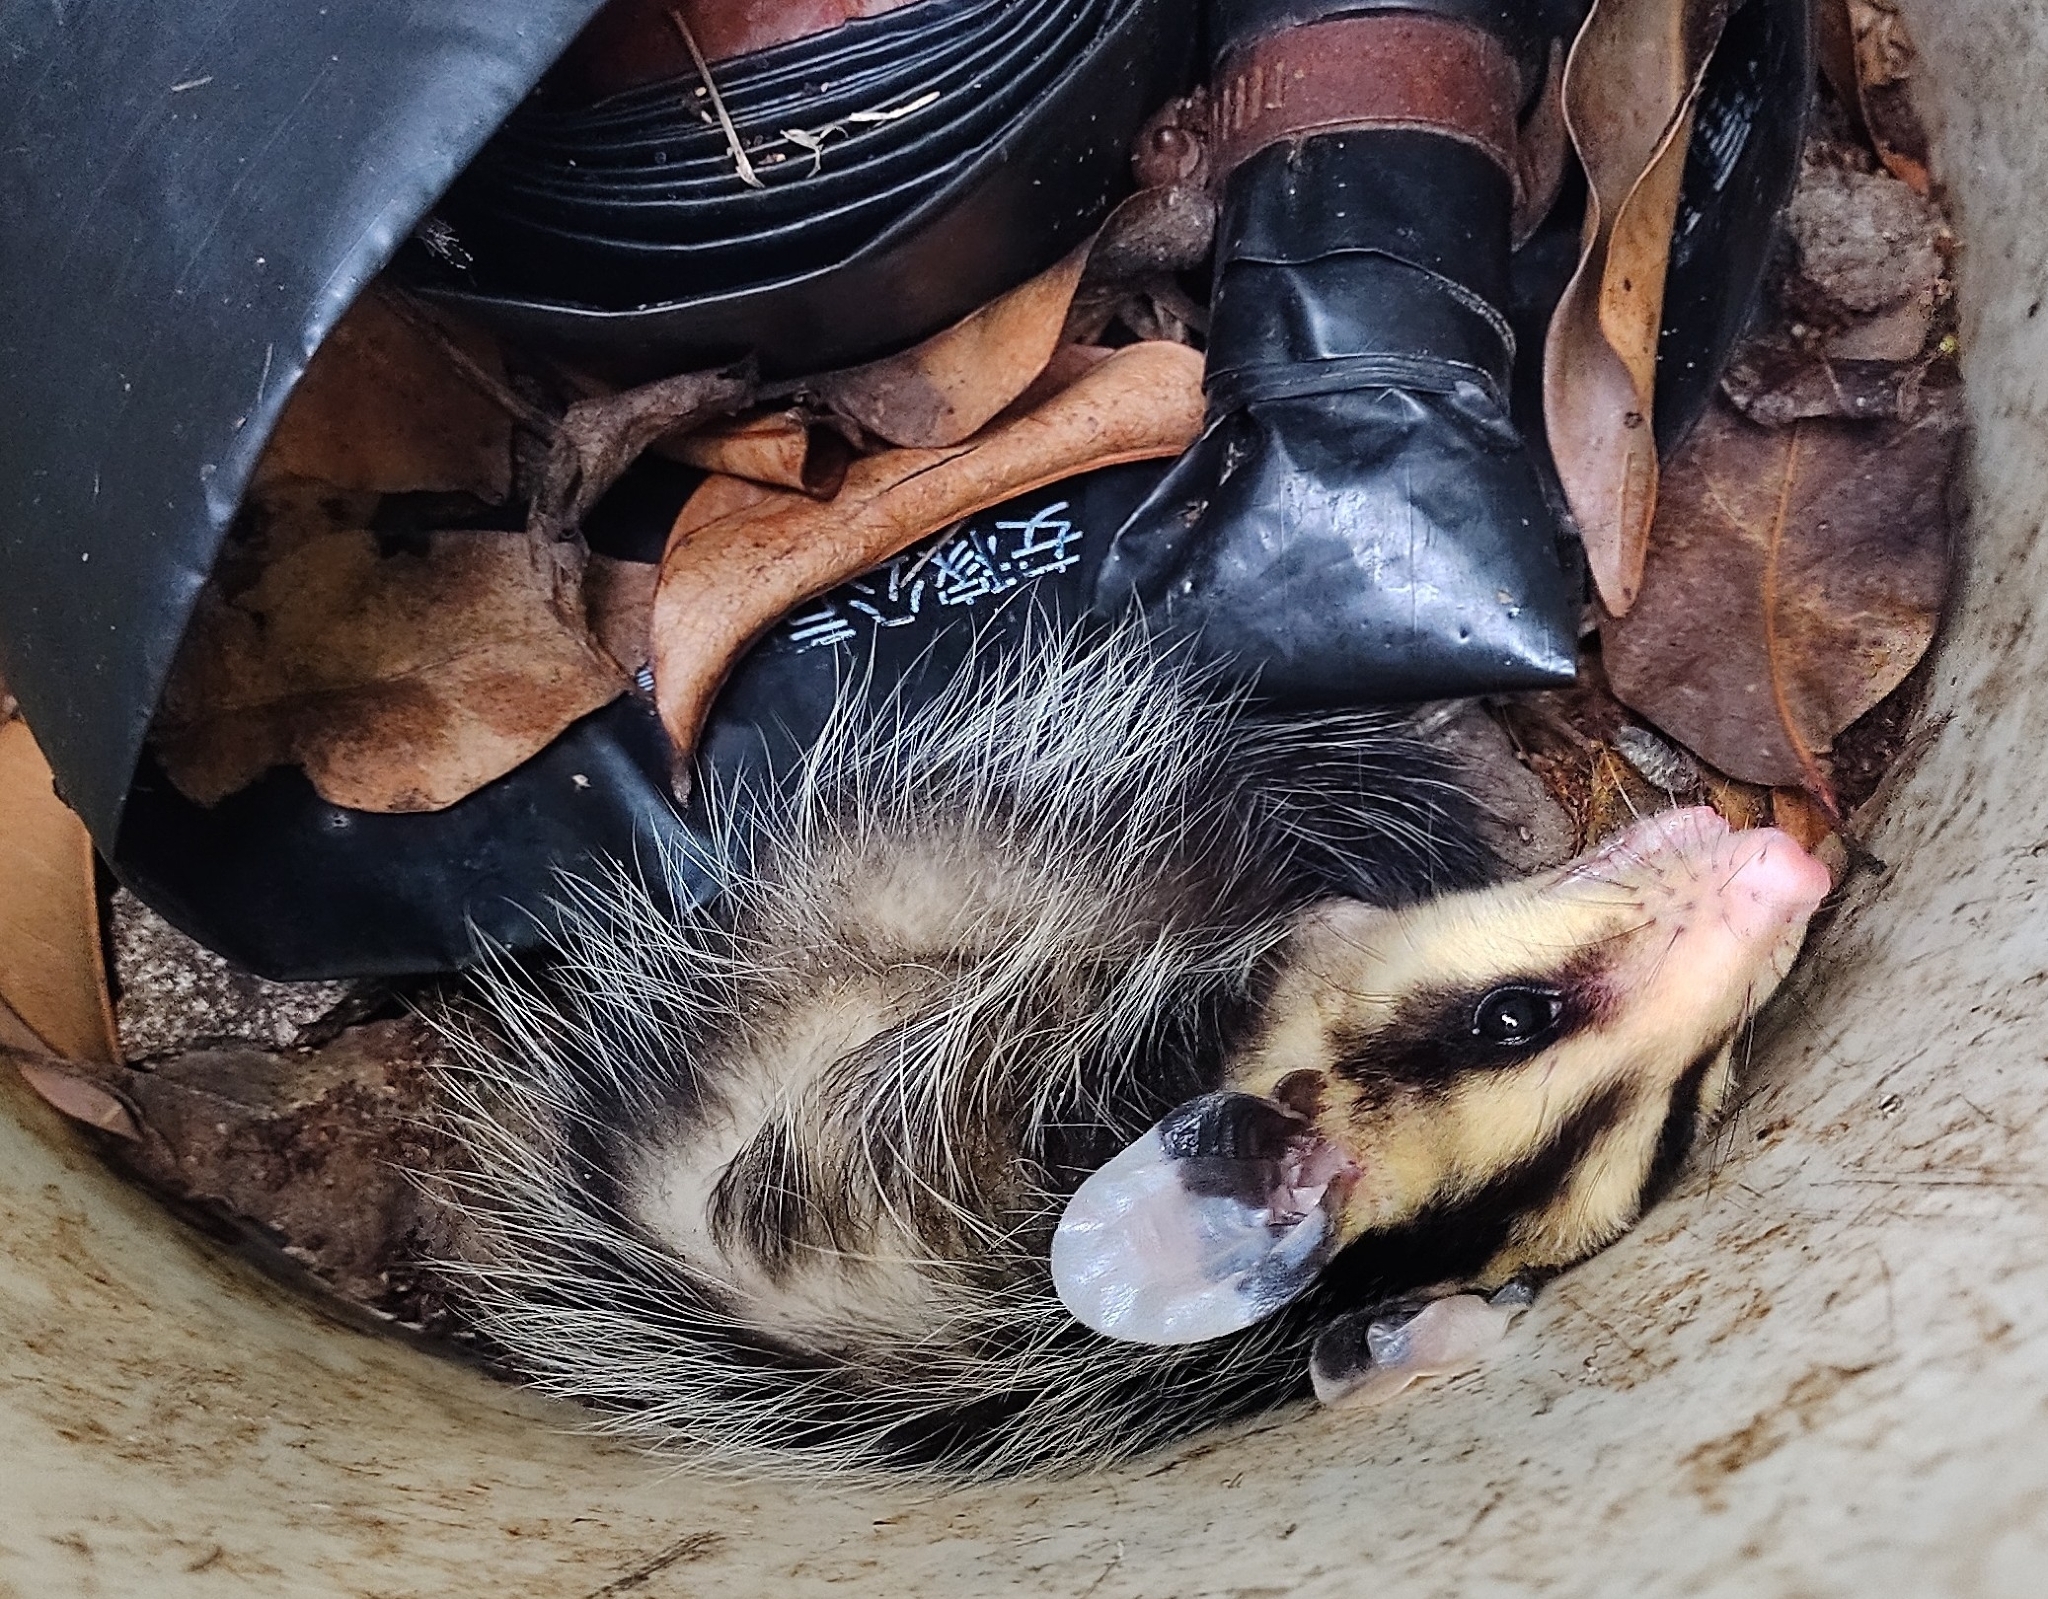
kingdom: Animalia
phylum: Chordata
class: Mammalia
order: Didelphimorphia
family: Didelphidae
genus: Didelphis
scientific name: Didelphis albiventris
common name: White-eared opossum
